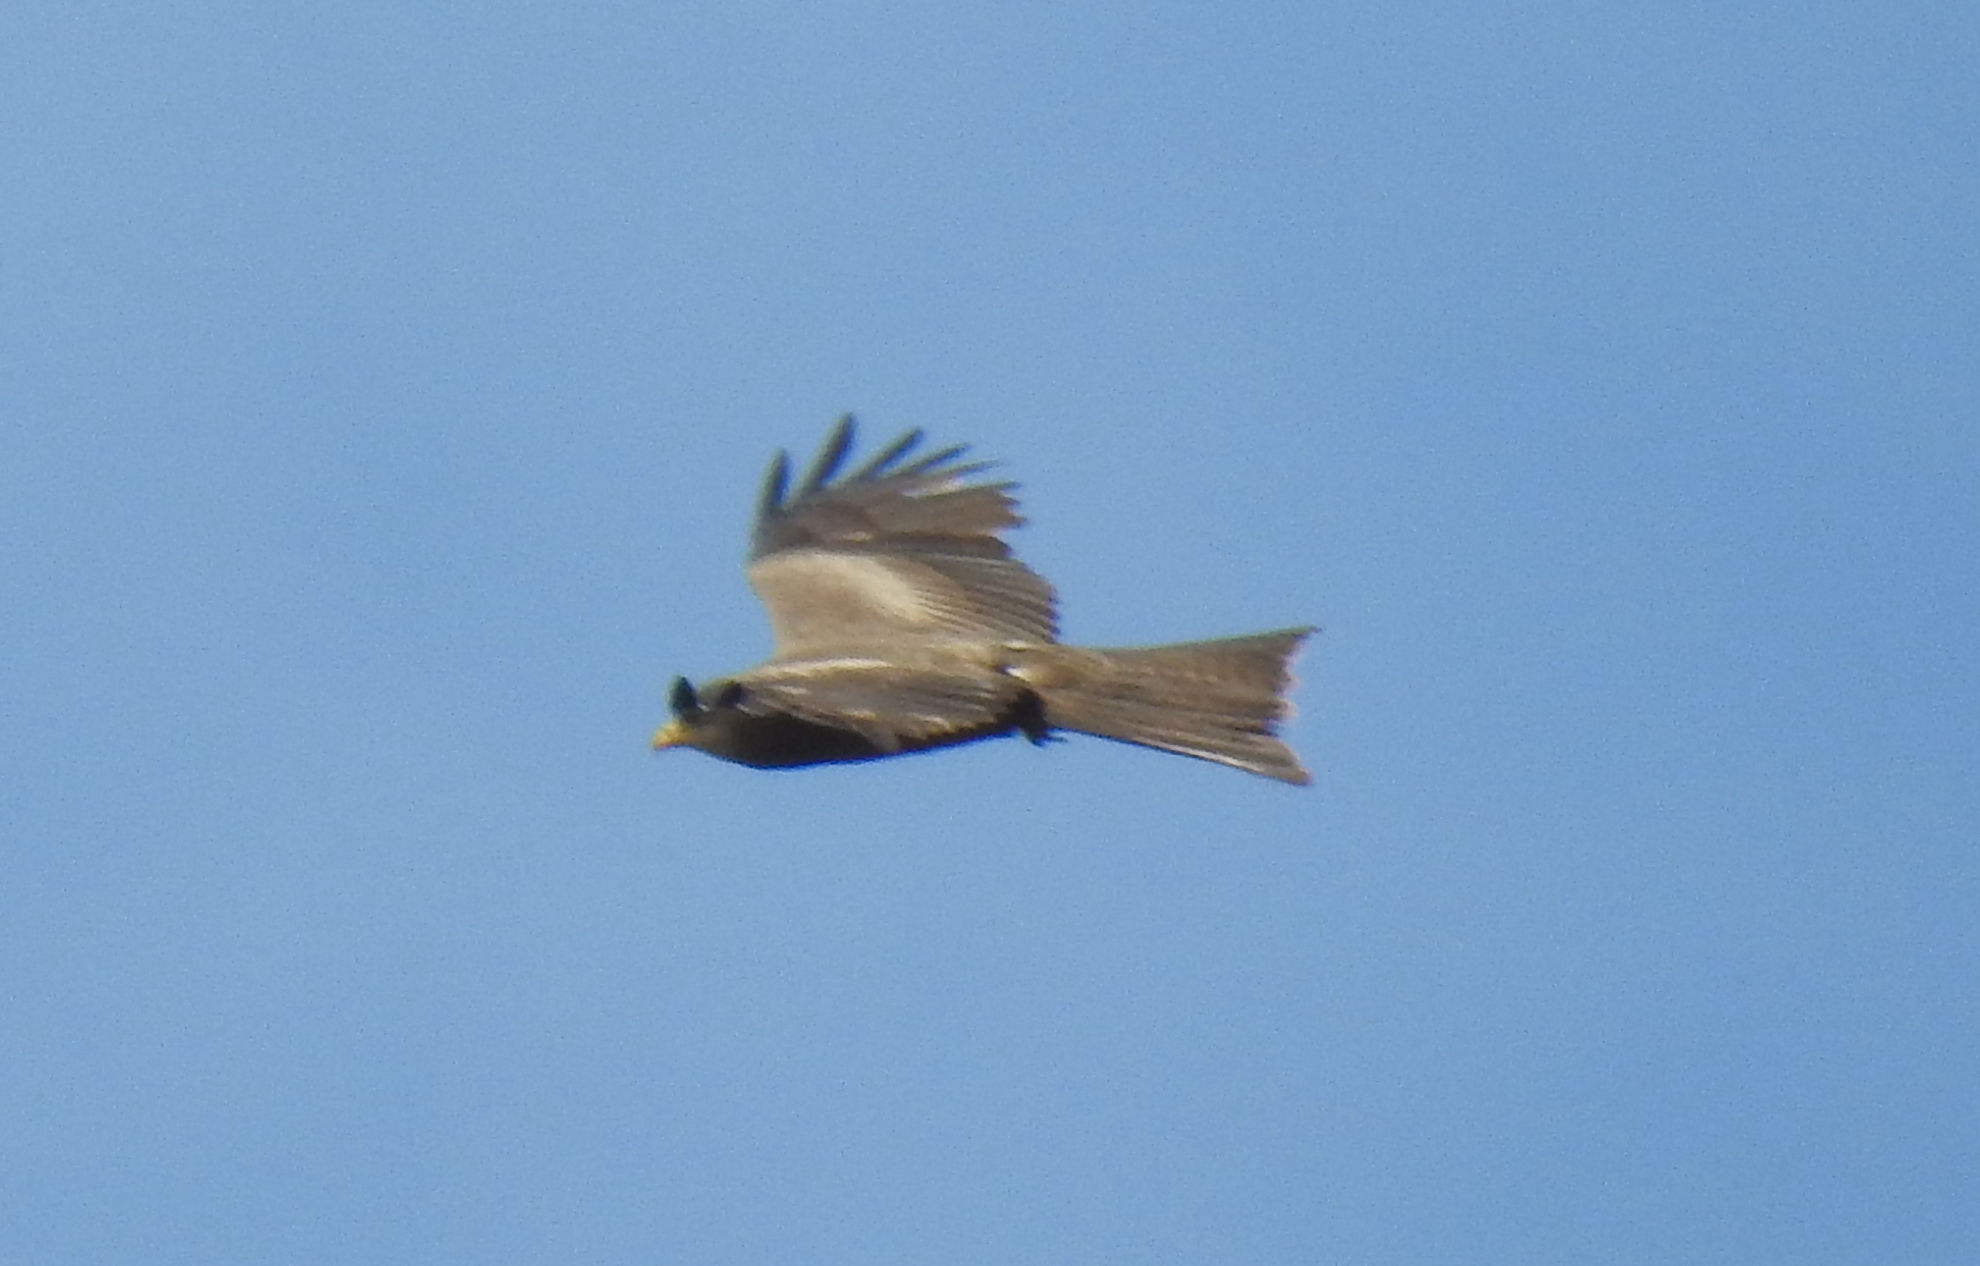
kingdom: Animalia
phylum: Chordata
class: Aves
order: Accipitriformes
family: Accipitridae
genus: Milvus
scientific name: Milvus migrans
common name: Black kite
